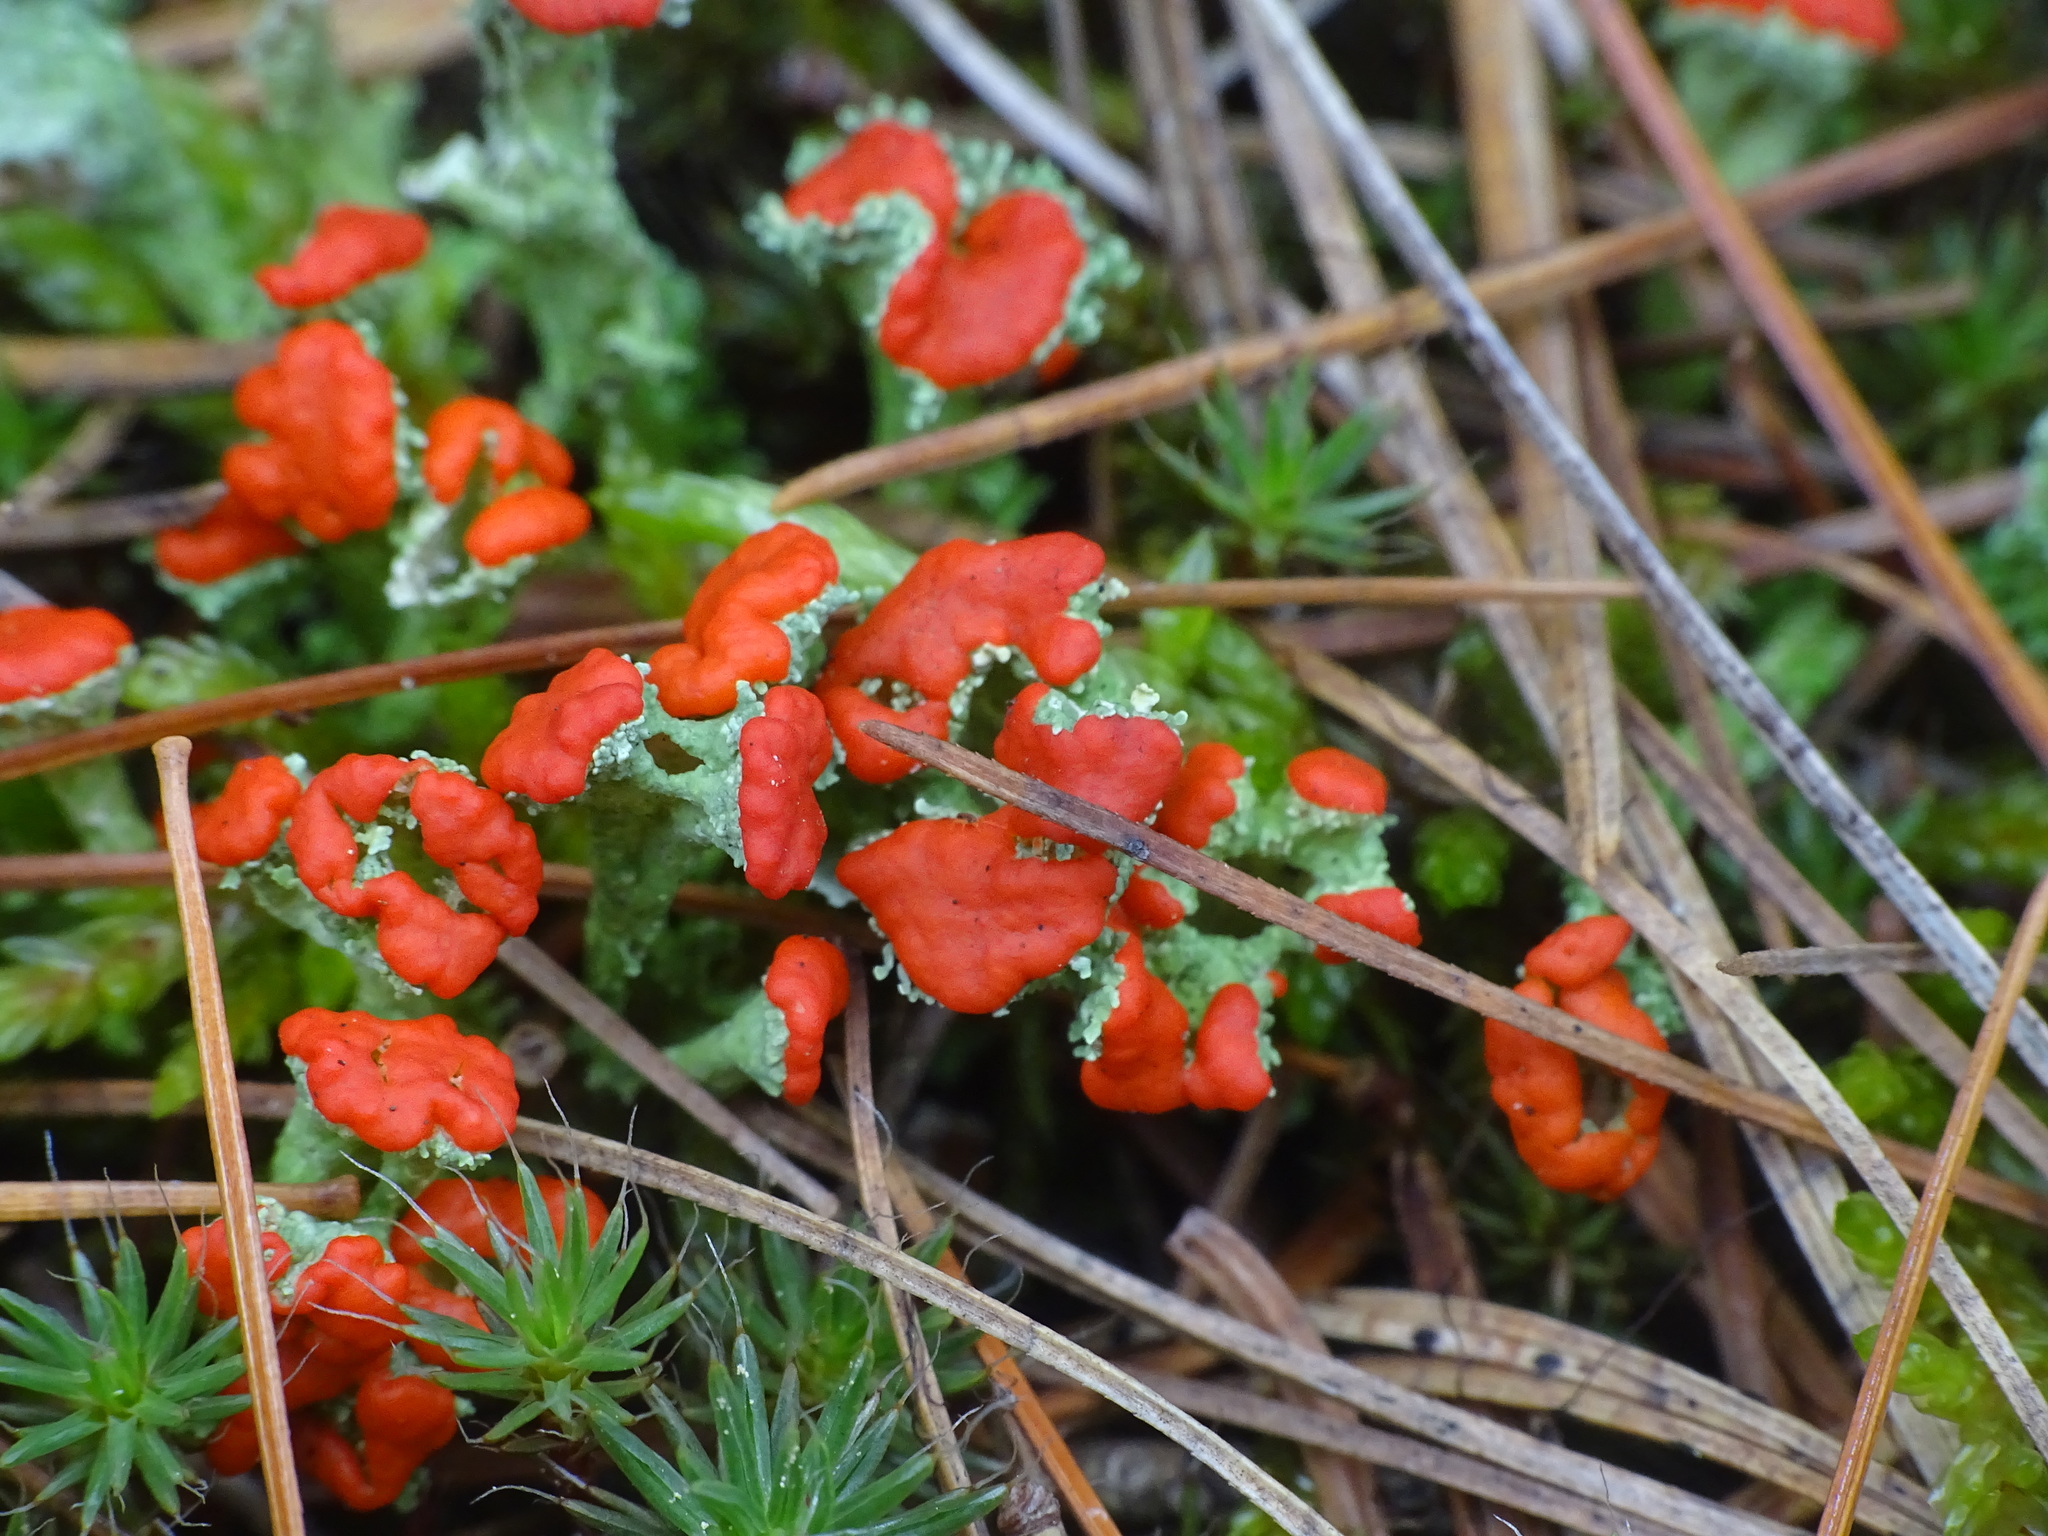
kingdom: Fungi
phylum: Ascomycota
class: Lecanoromycetes
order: Lecanorales
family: Cladoniaceae
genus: Cladonia
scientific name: Cladonia cristatella
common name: British soldier lichen
